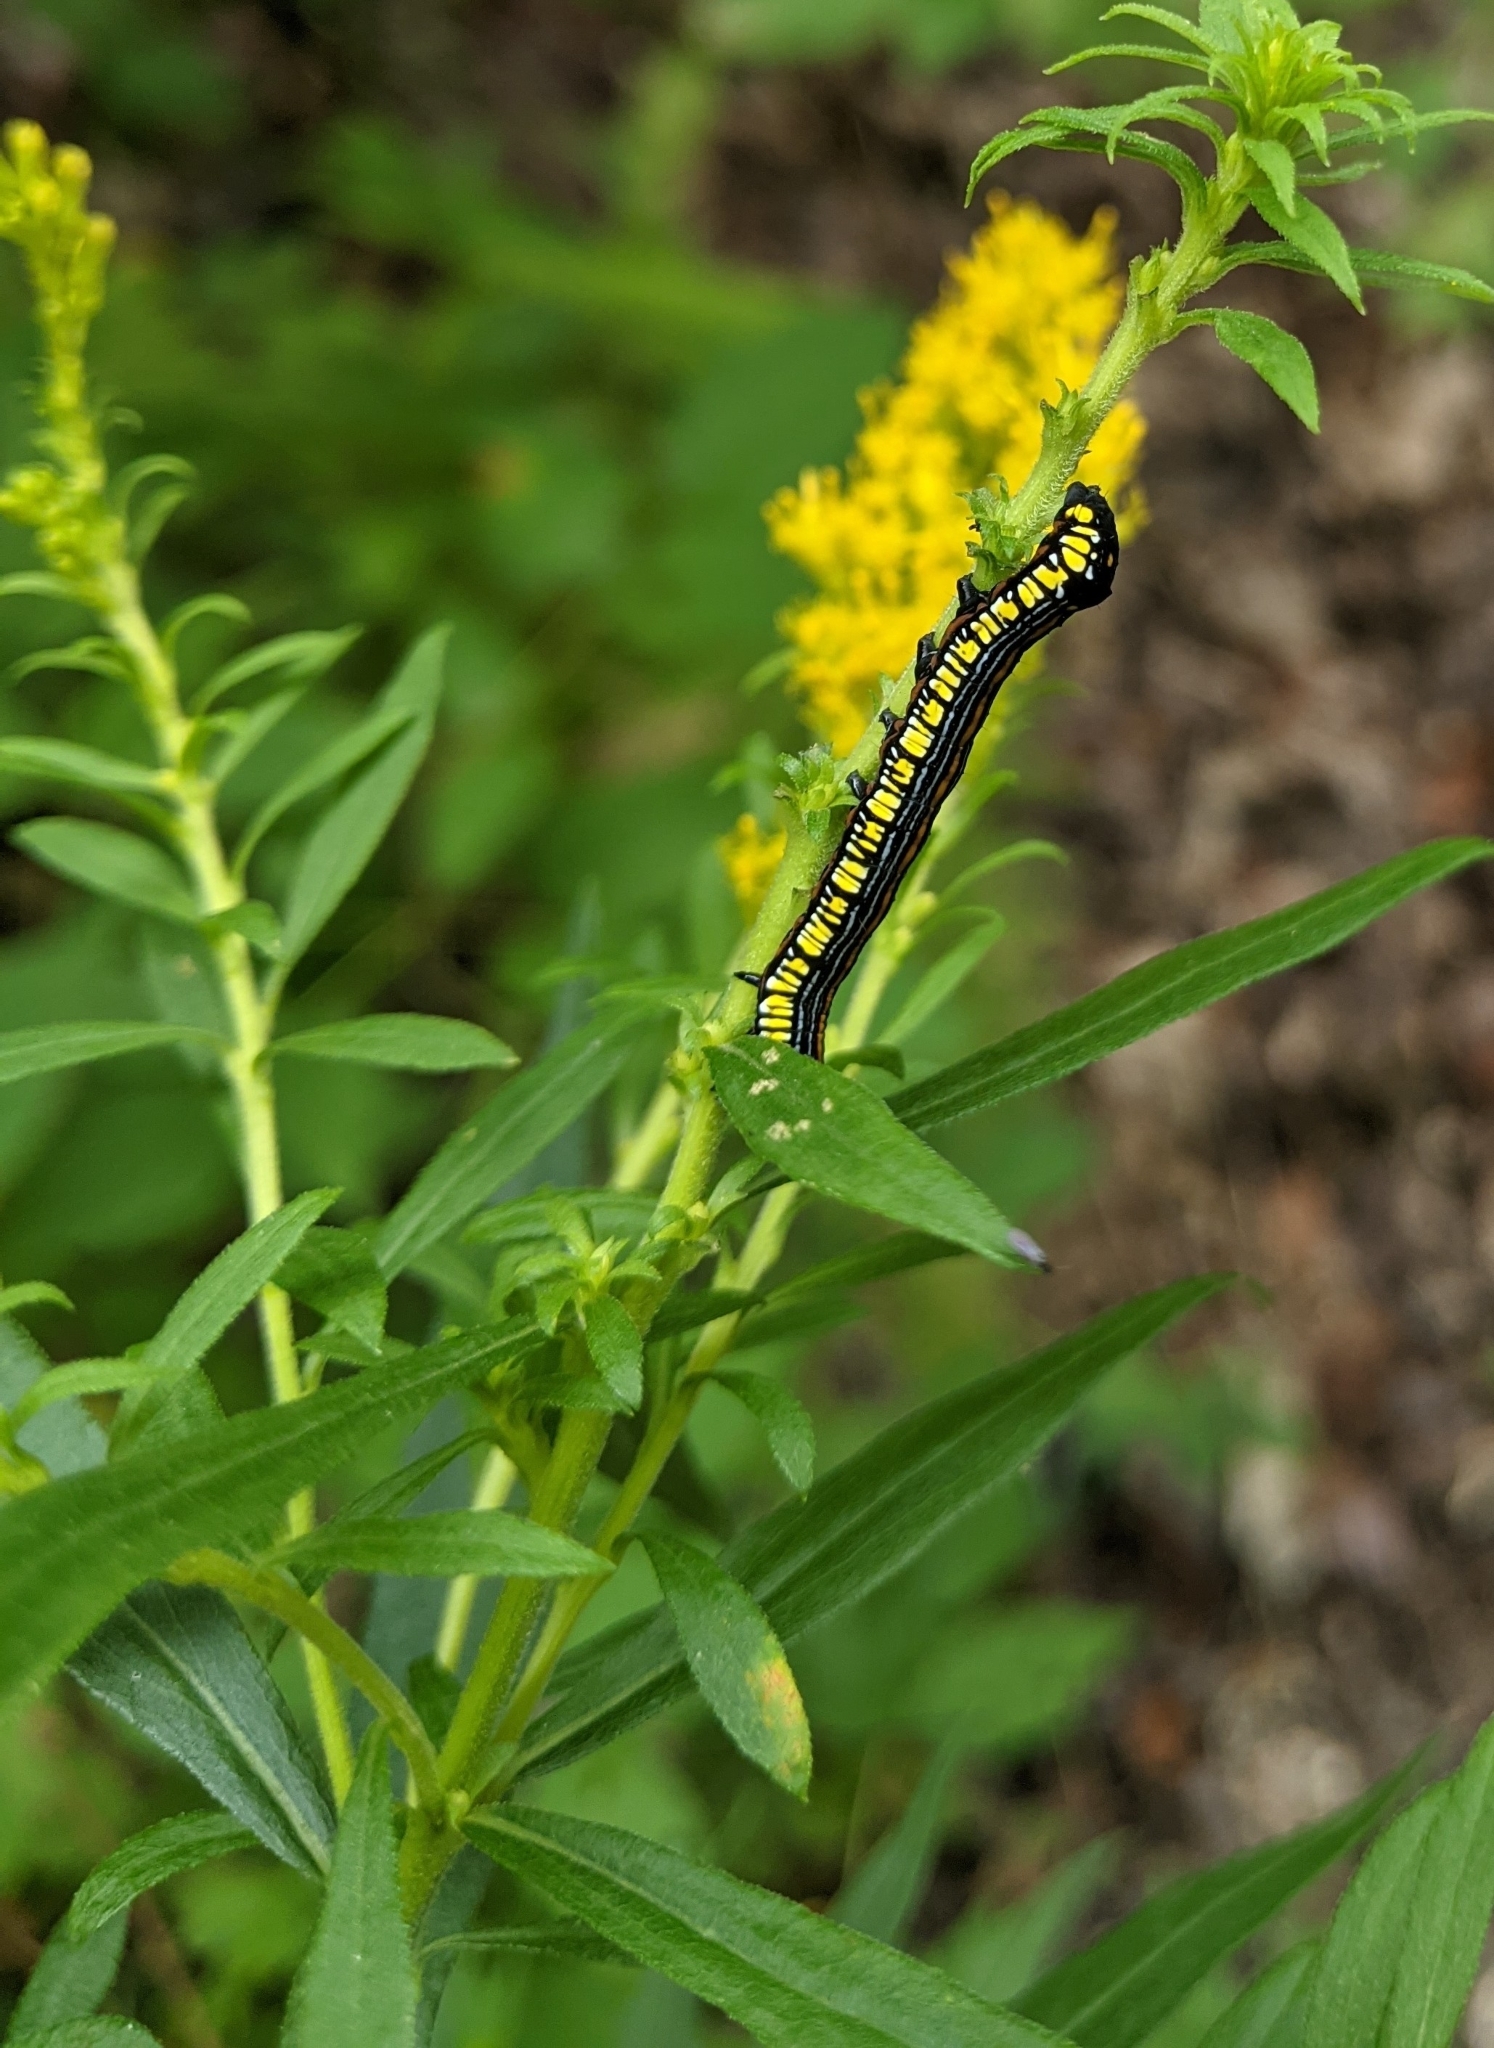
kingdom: Animalia
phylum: Arthropoda
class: Insecta
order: Lepidoptera
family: Noctuidae
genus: Cucullia
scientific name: Cucullia convexipennis
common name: Brown-hooded owlet
